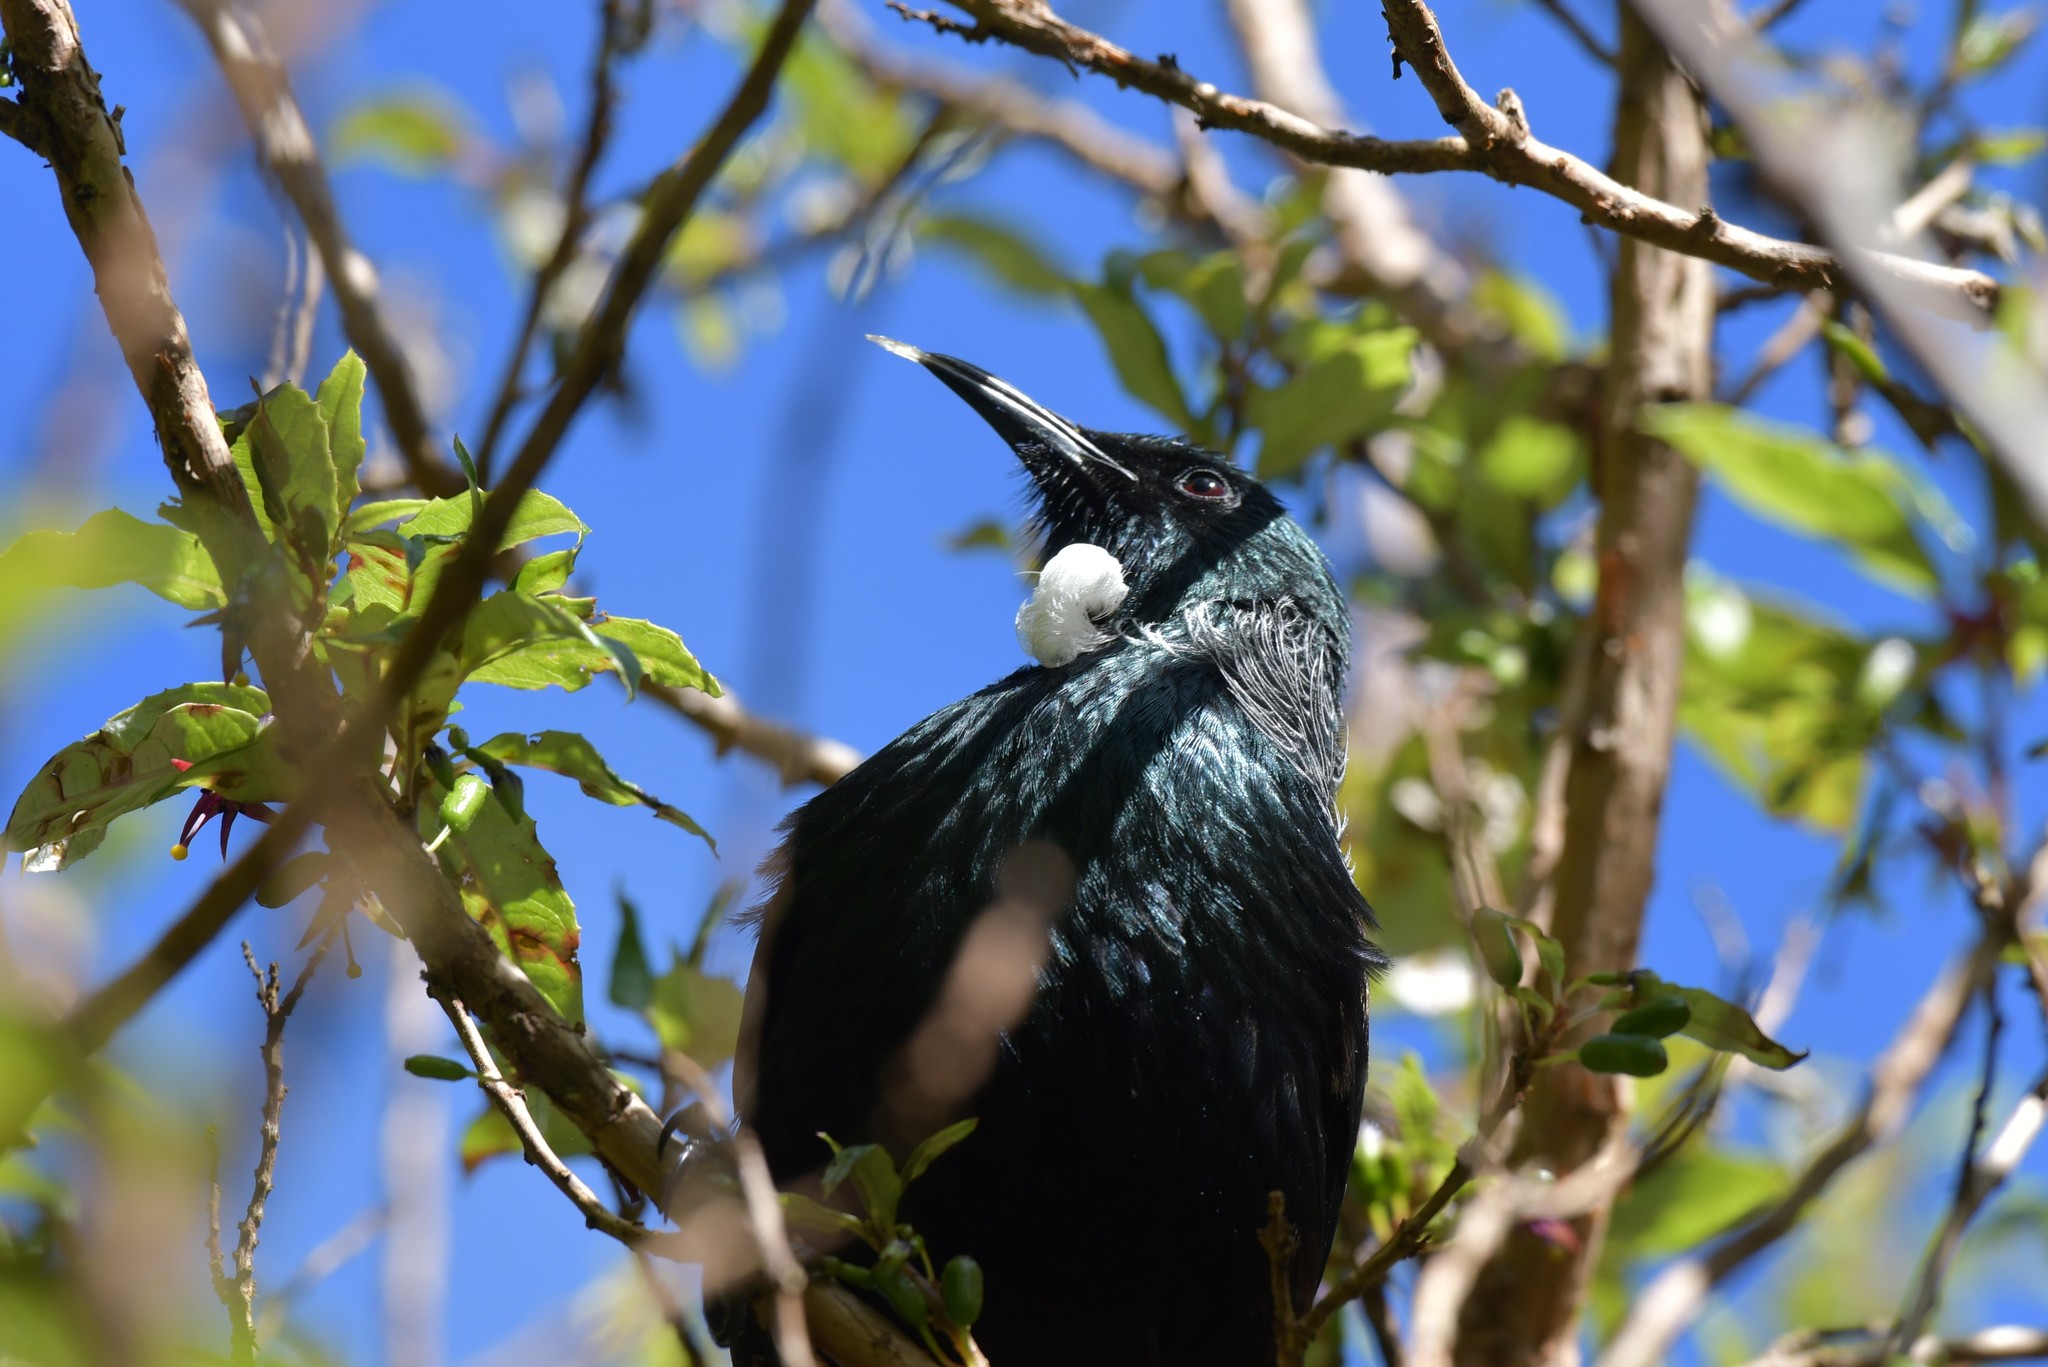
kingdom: Animalia
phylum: Chordata
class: Aves
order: Passeriformes
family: Meliphagidae
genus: Prosthemadera
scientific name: Prosthemadera novaeseelandiae
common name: Tui
